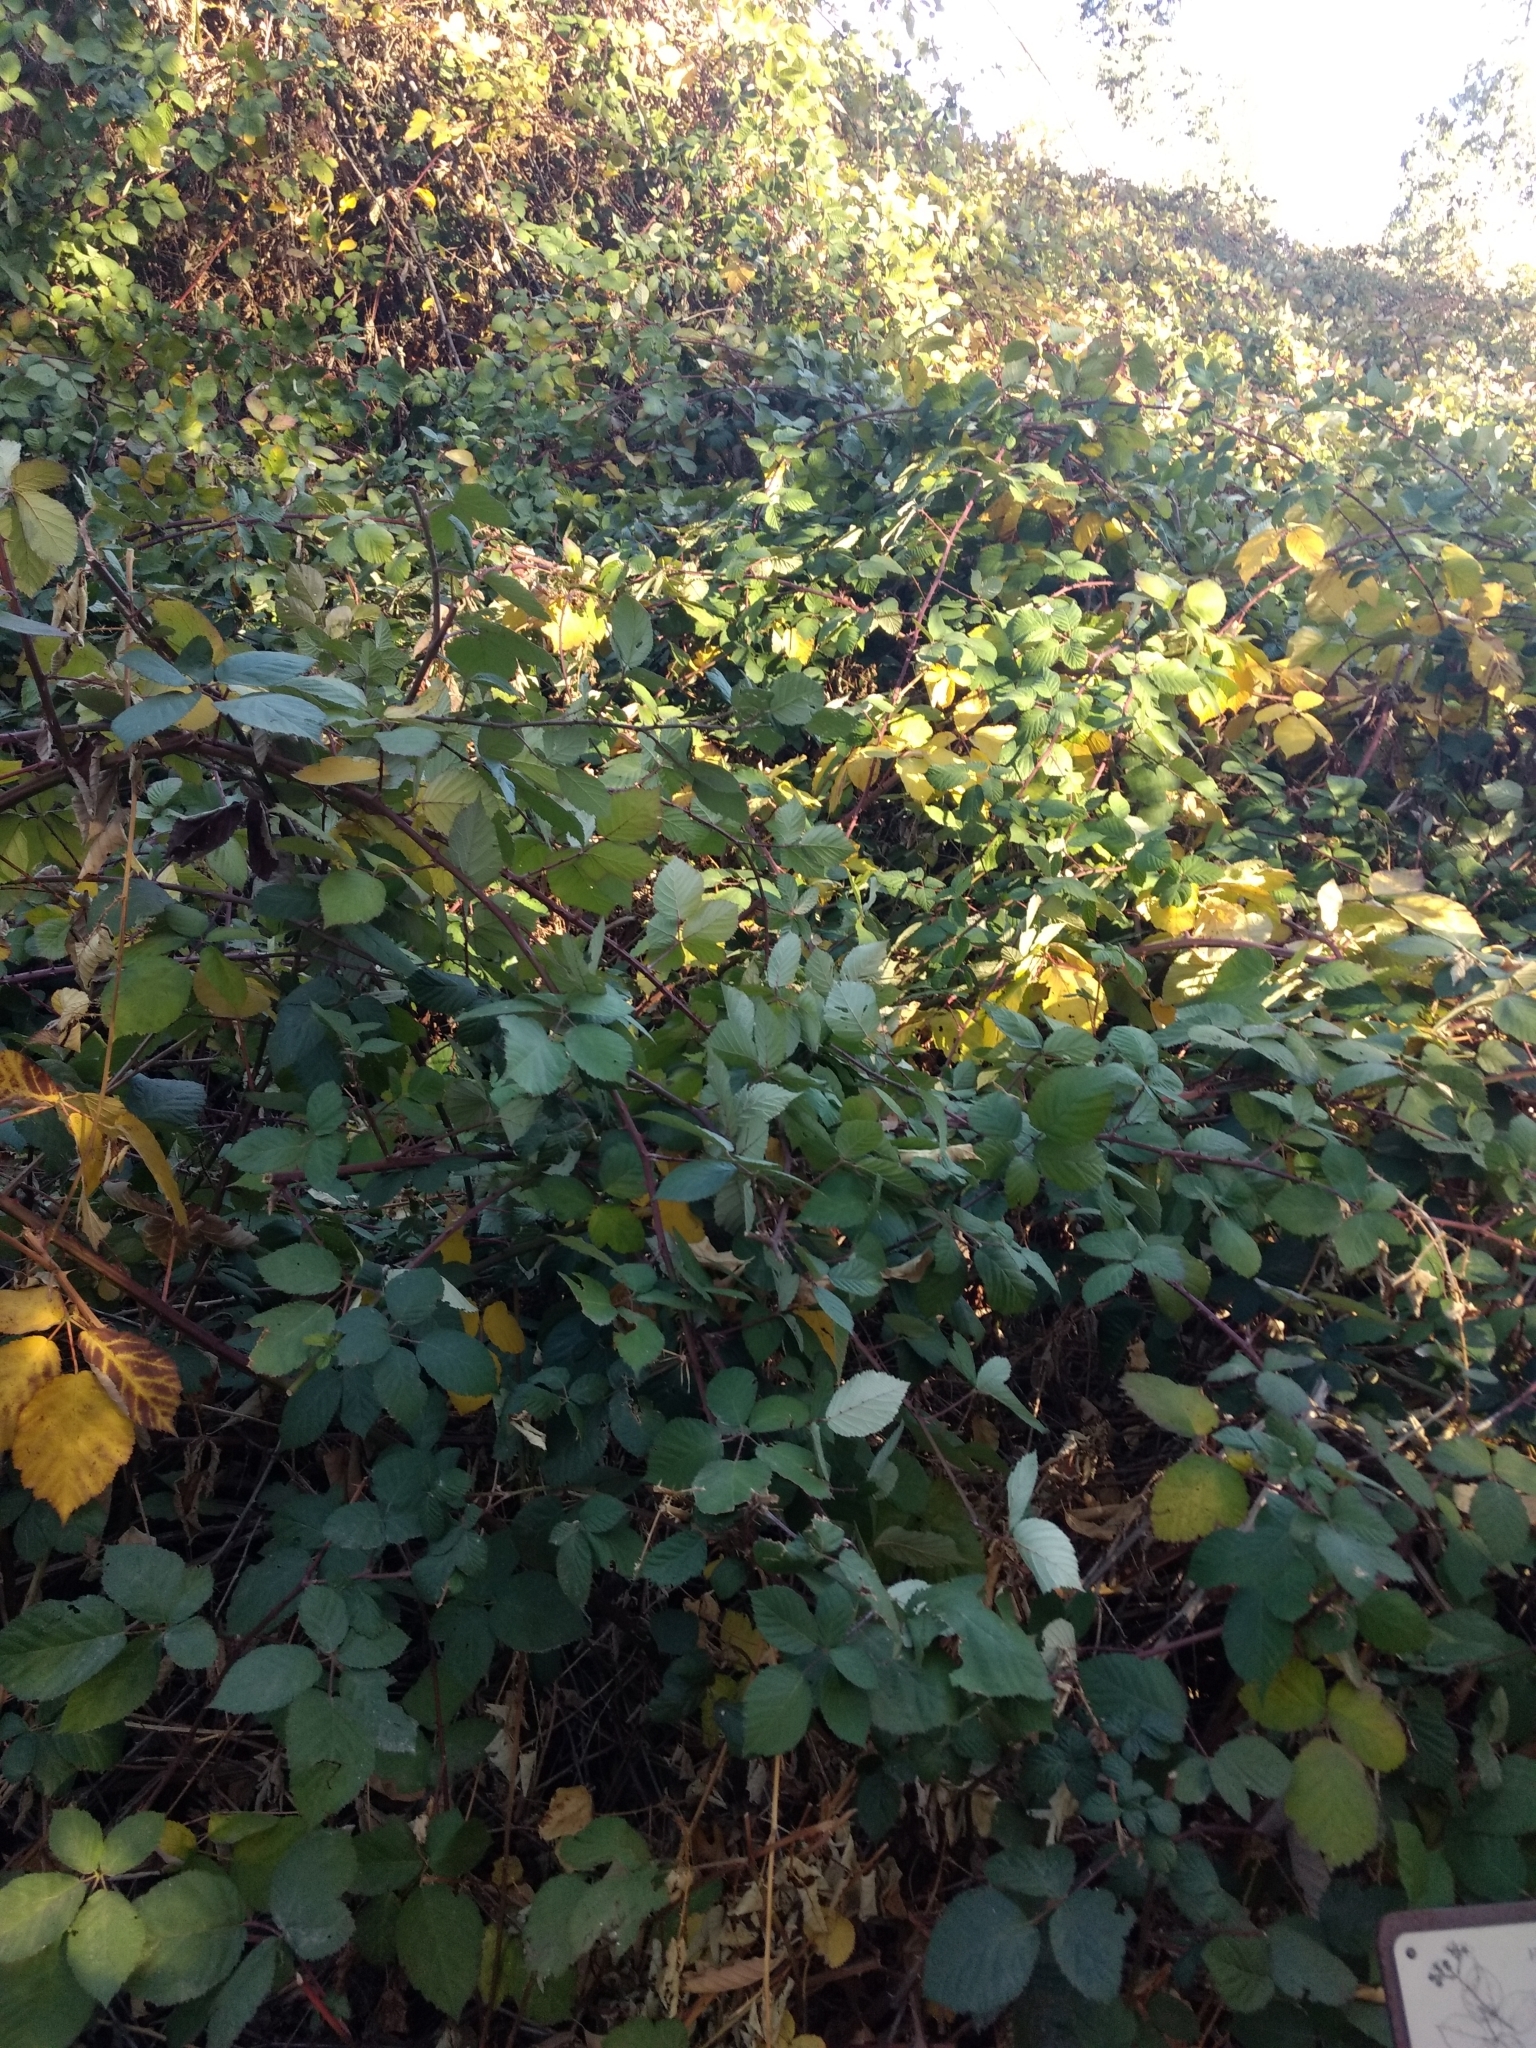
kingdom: Plantae
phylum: Tracheophyta
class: Magnoliopsida
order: Rosales
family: Rosaceae
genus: Rubus
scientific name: Rubus armeniacus
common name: Himalayan blackberry
